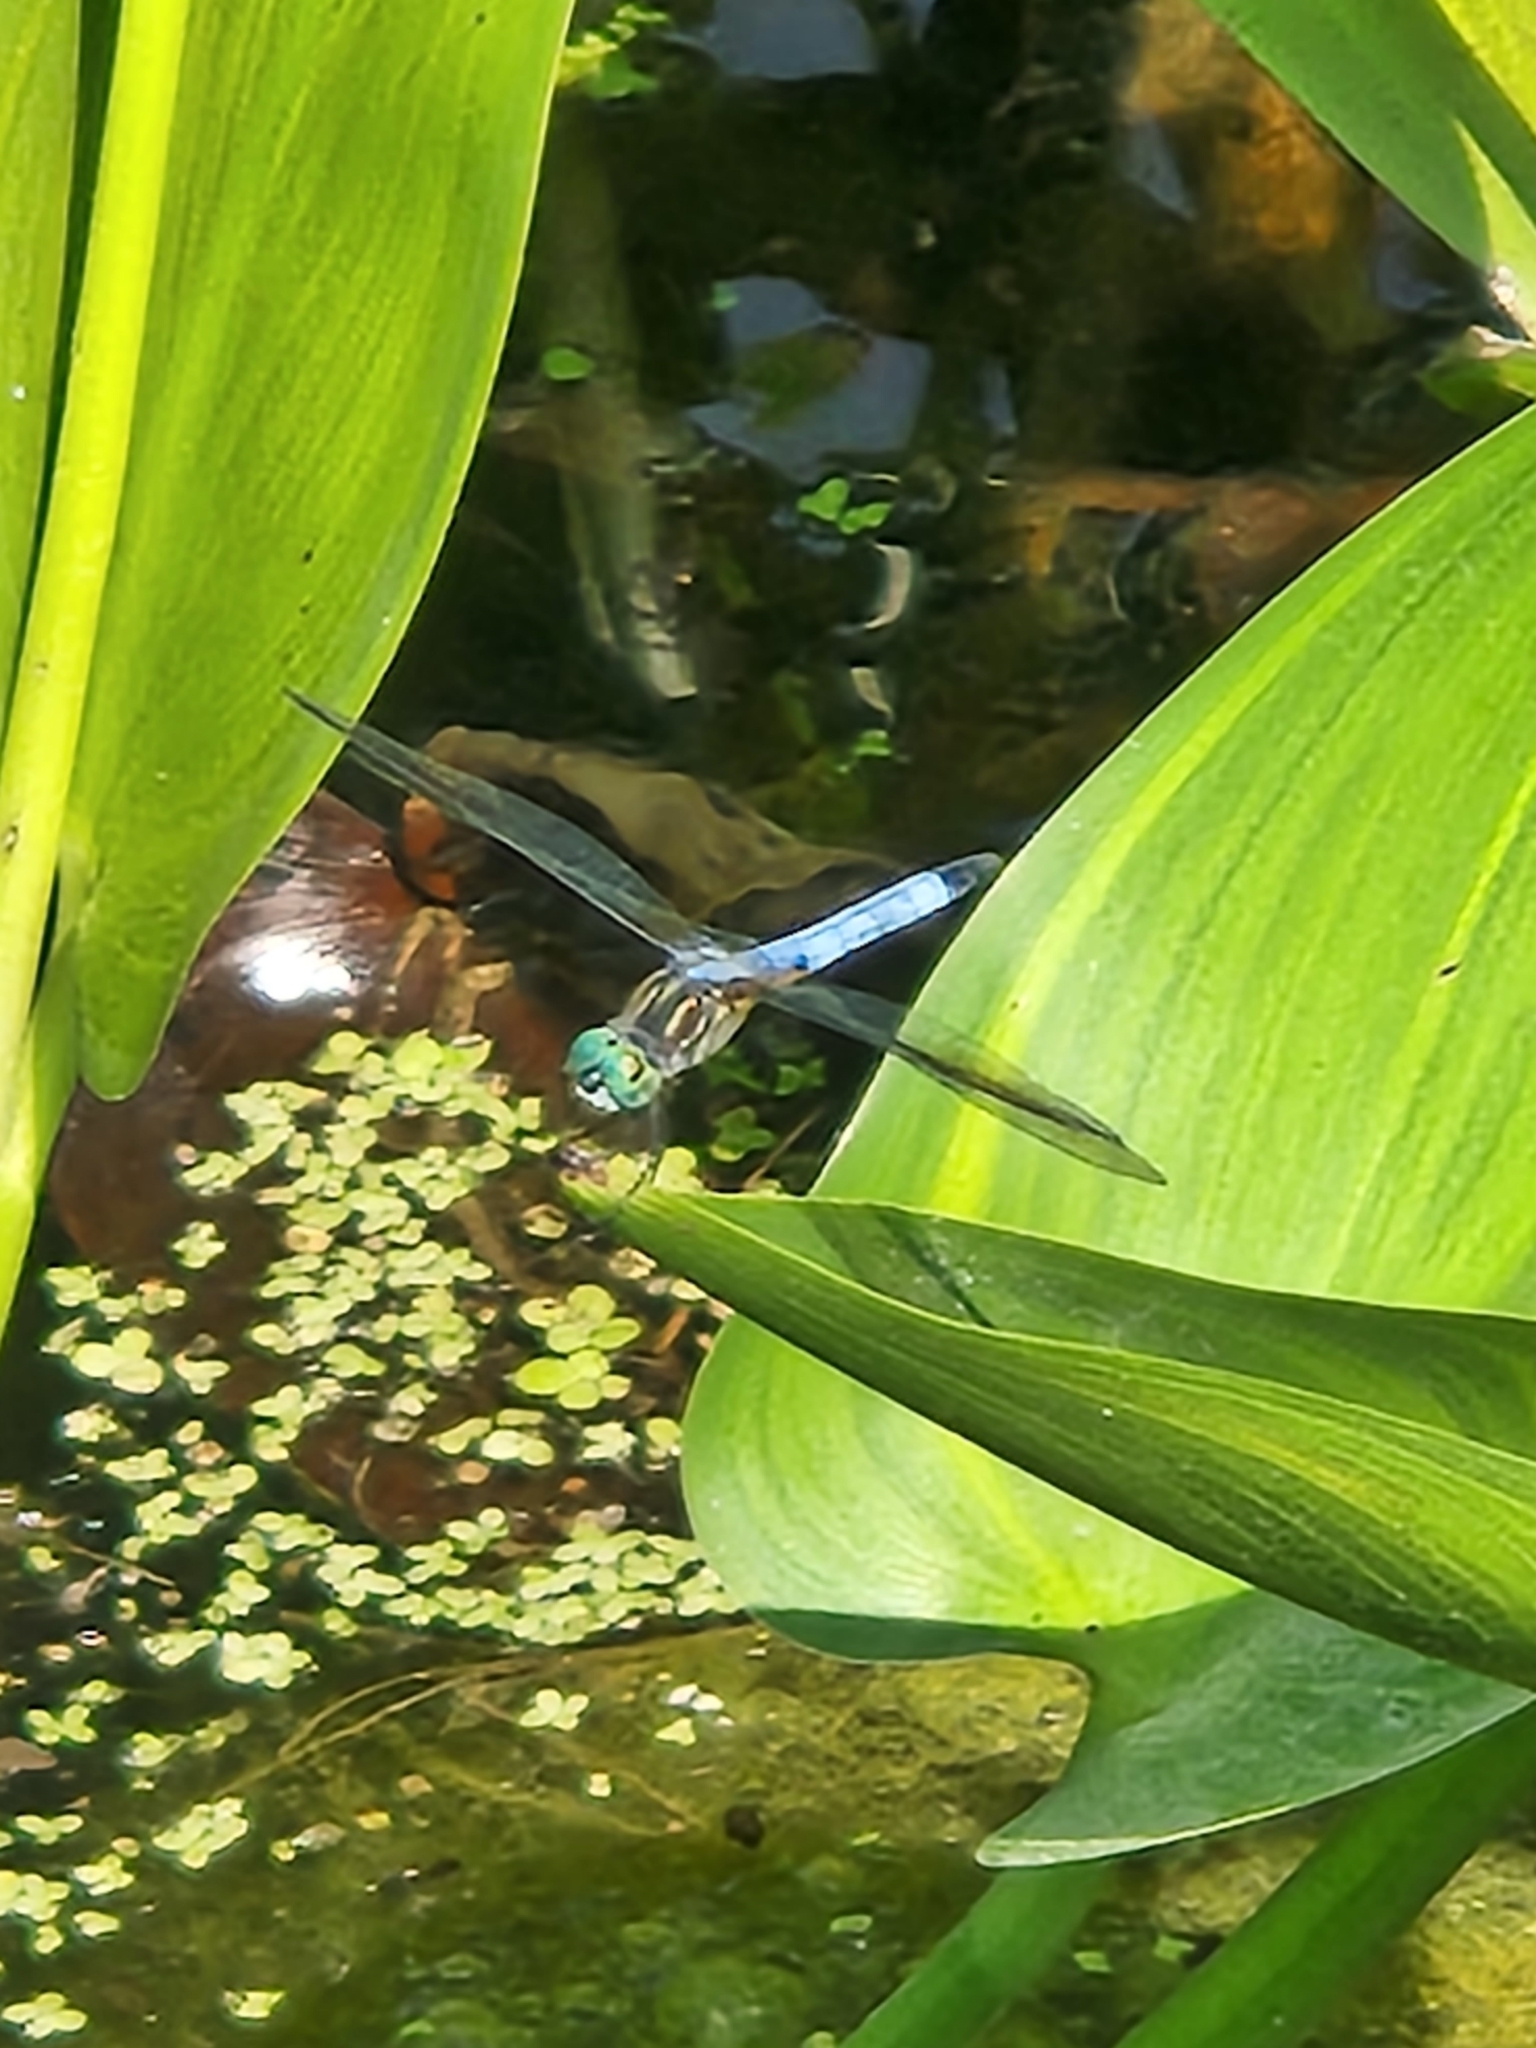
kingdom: Animalia
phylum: Arthropoda
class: Insecta
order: Odonata
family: Libellulidae
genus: Pachydiplax
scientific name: Pachydiplax longipennis
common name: Blue dasher
